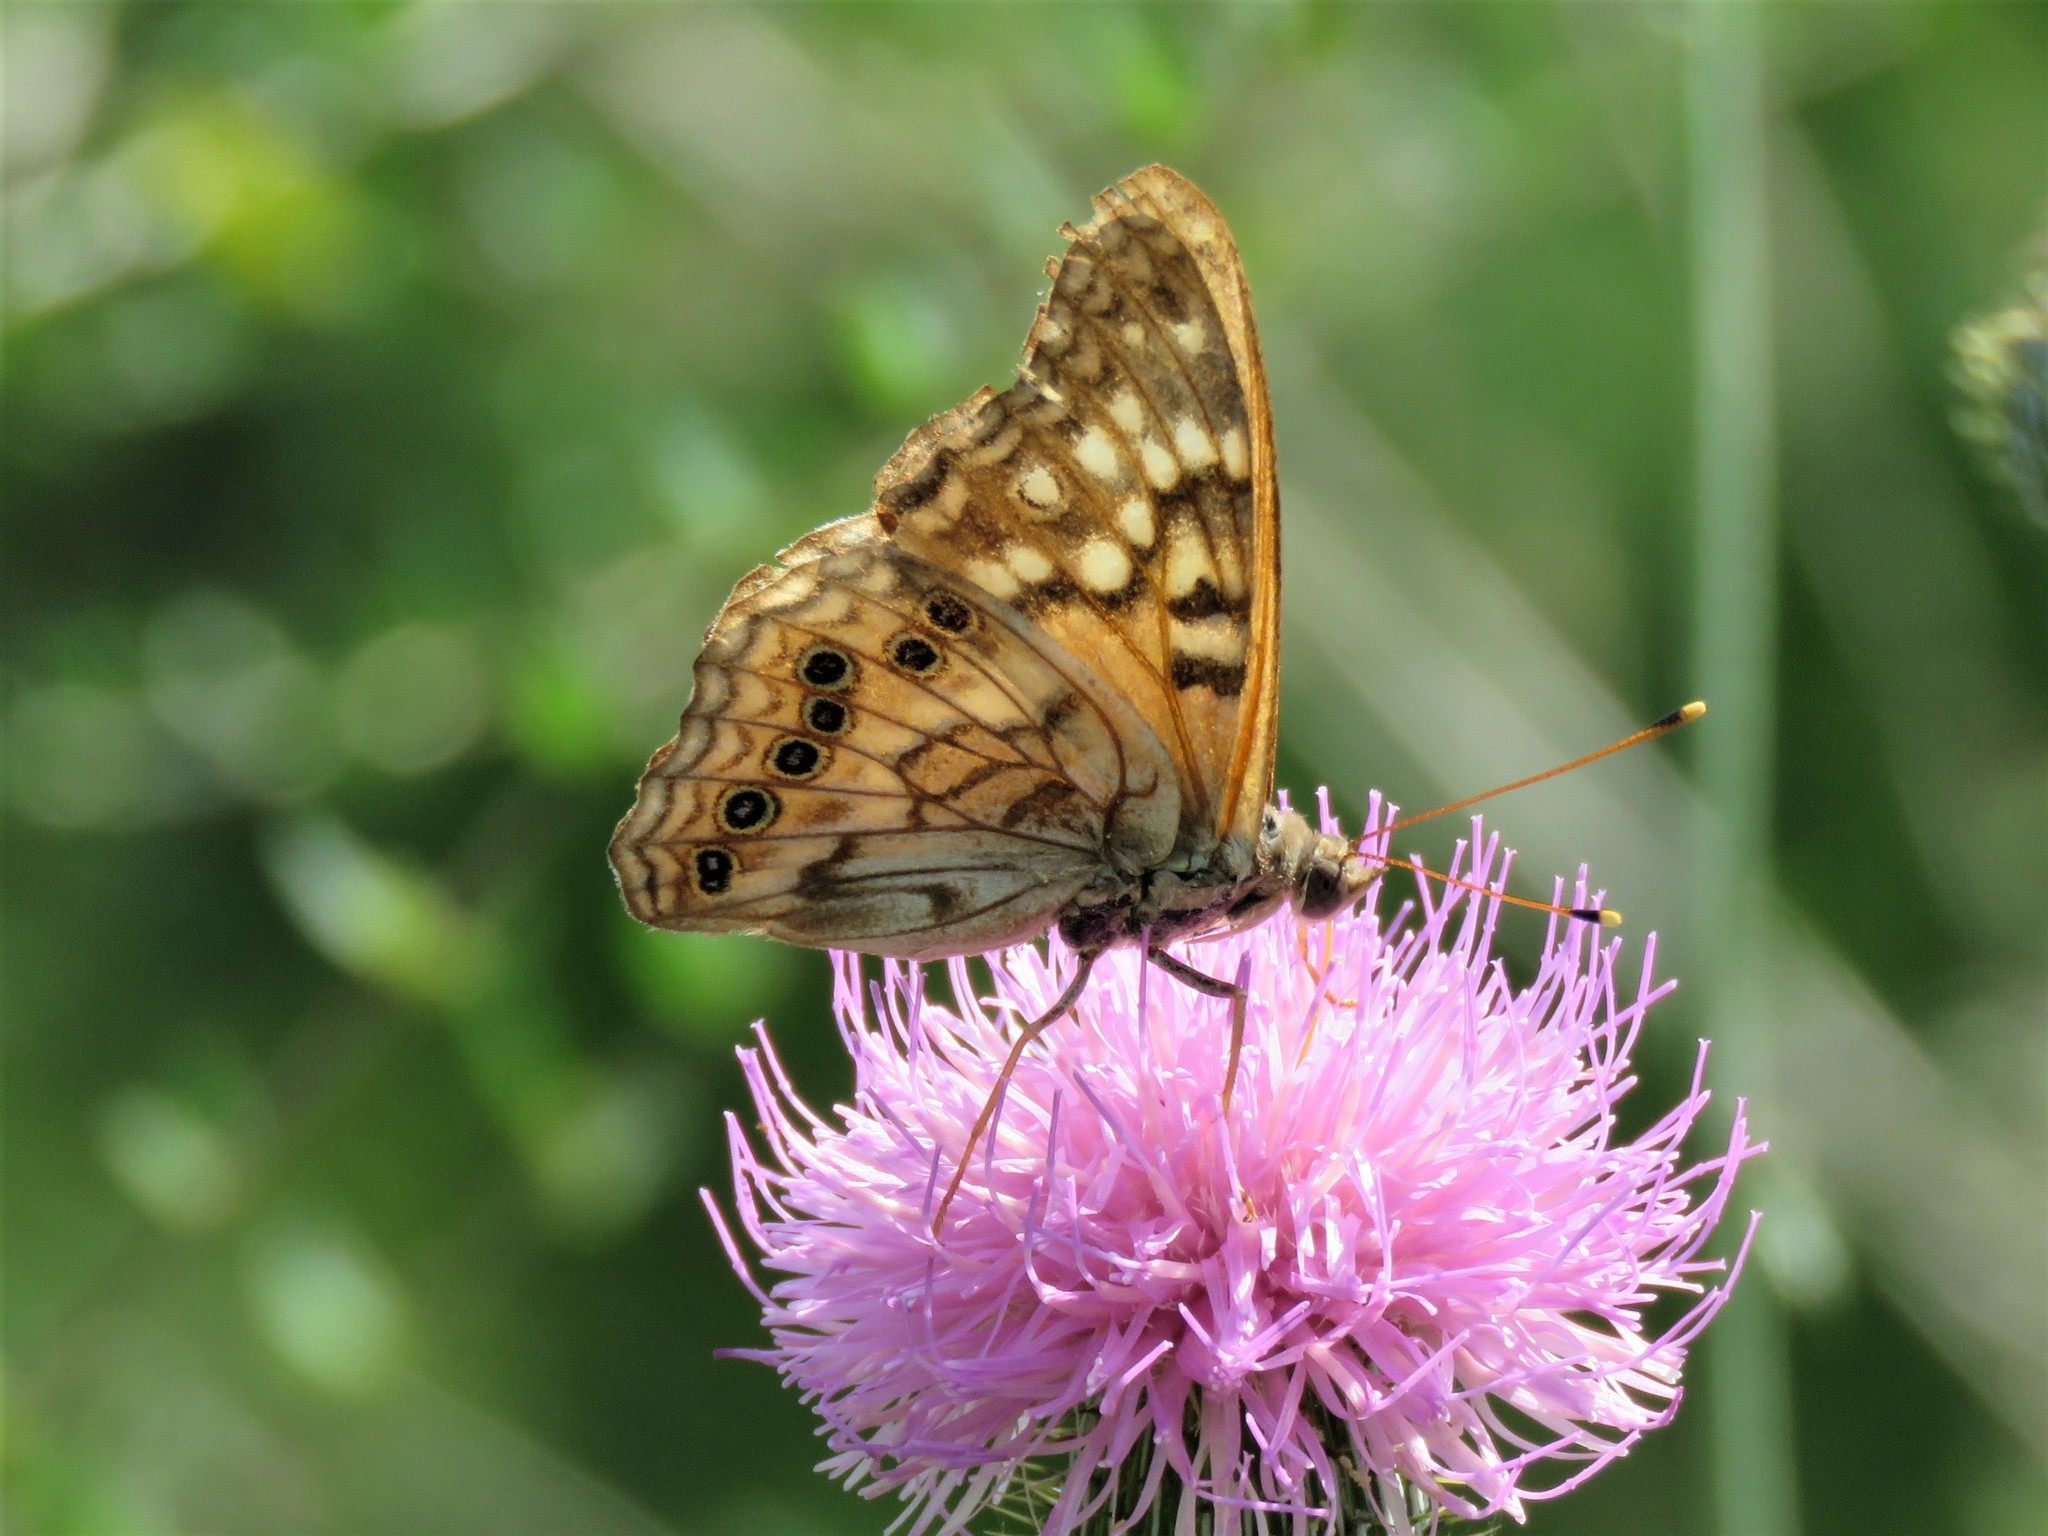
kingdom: Animalia
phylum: Arthropoda
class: Insecta
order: Lepidoptera
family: Nymphalidae
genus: Asterocampa
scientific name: Asterocampa clyton
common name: Tawny emperor
